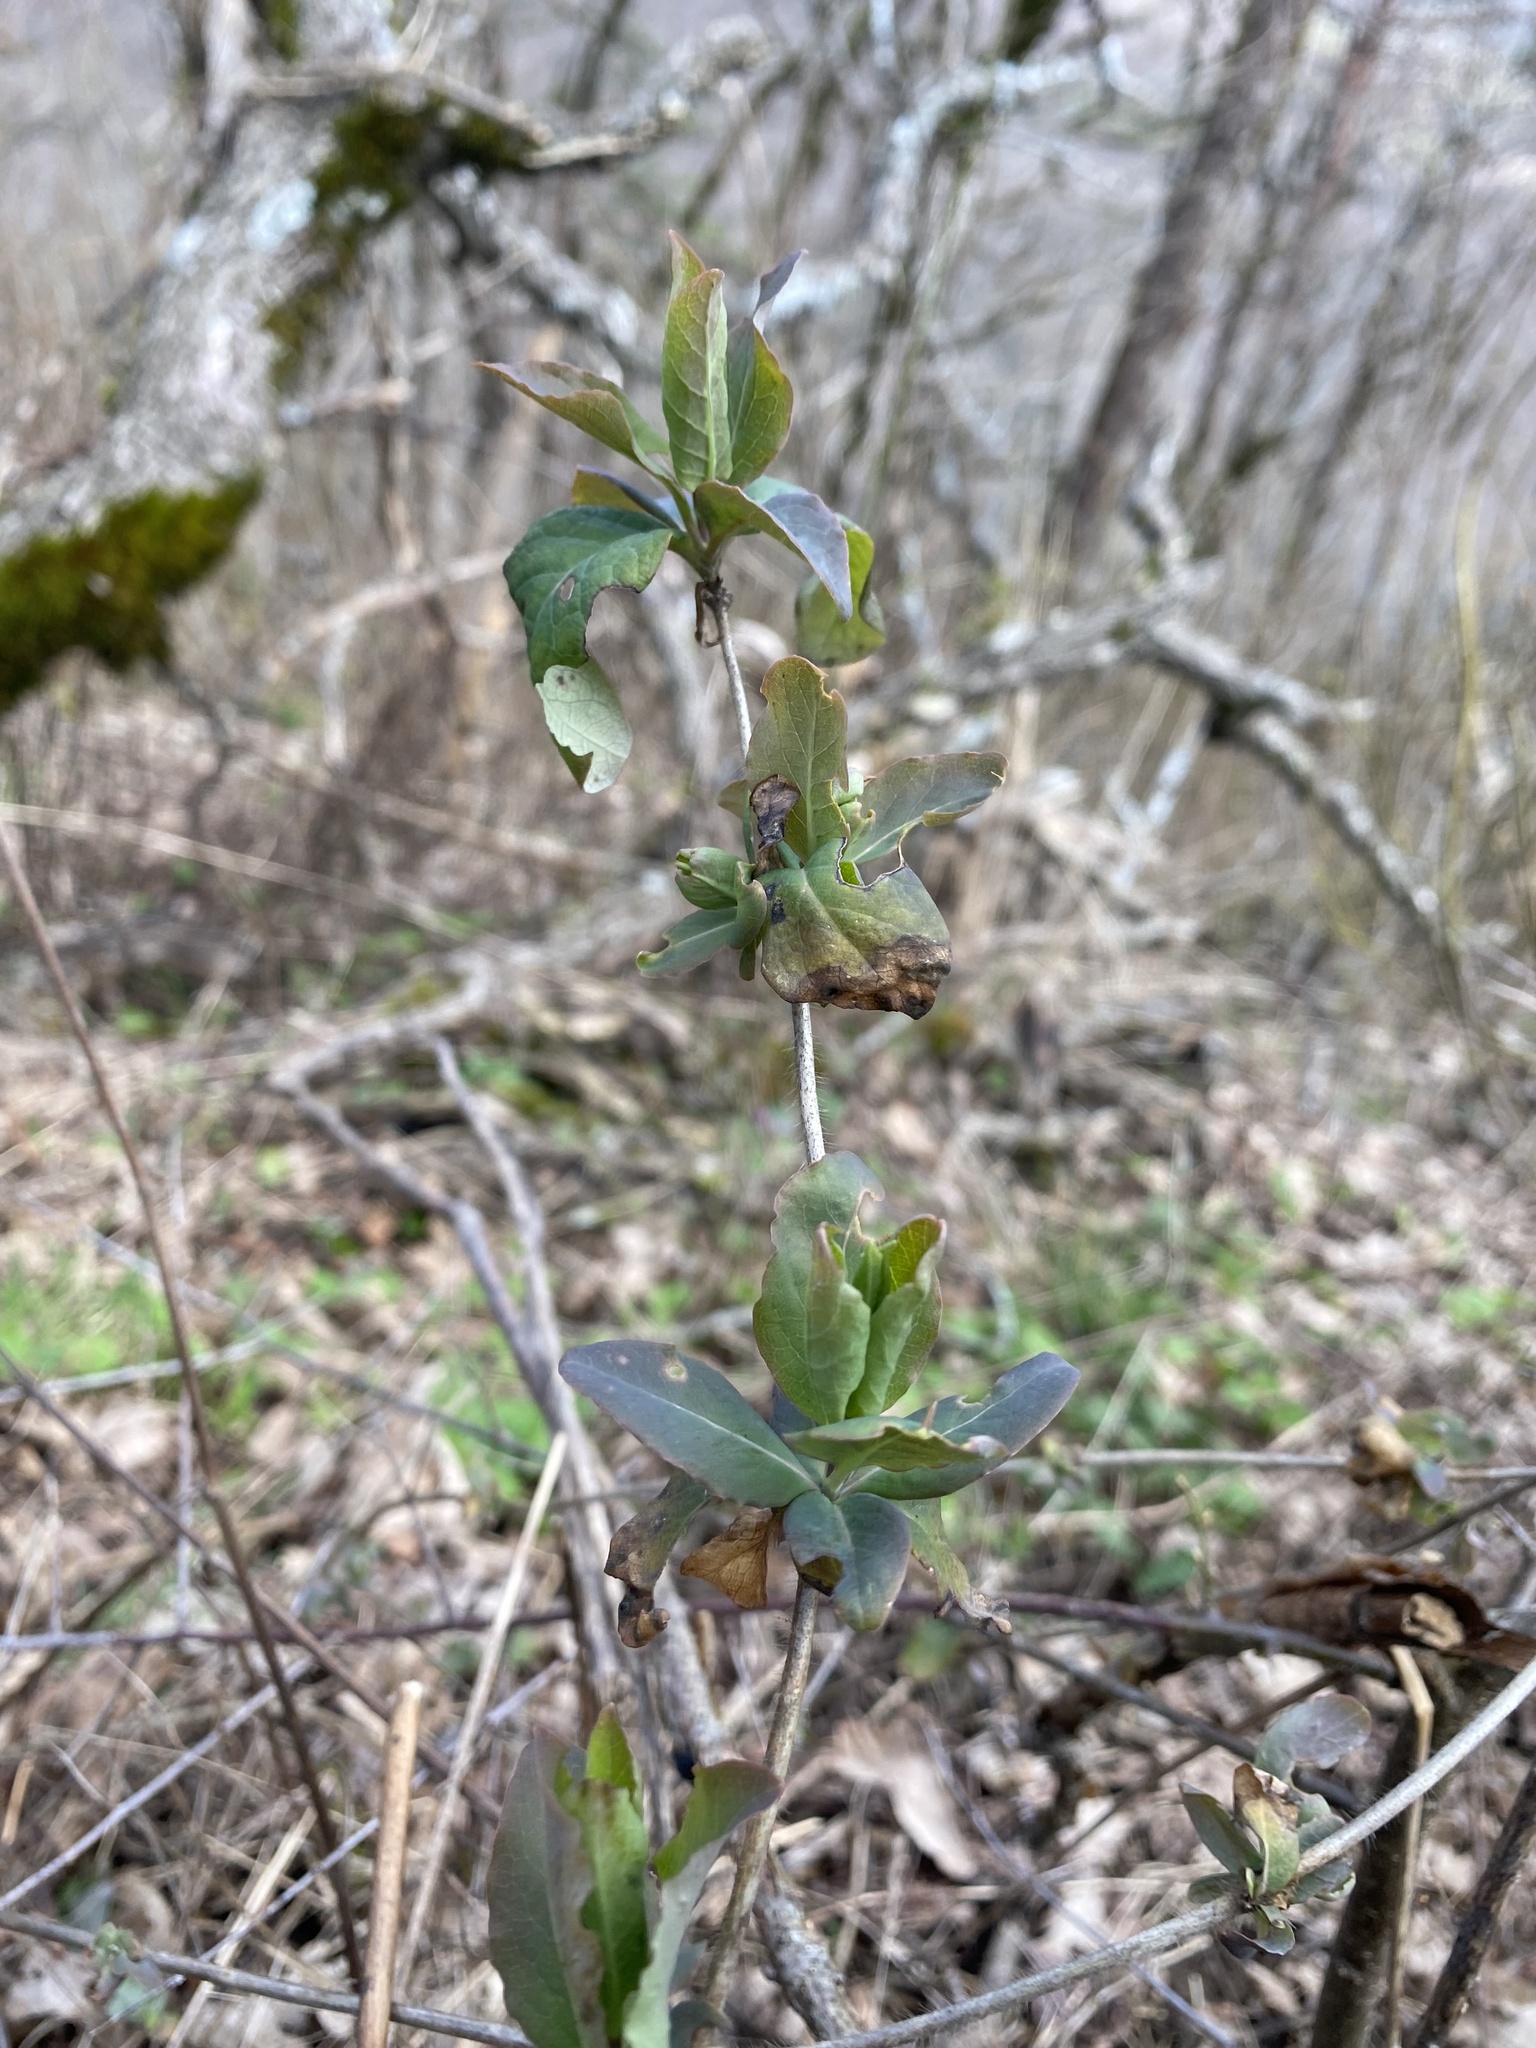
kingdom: Plantae
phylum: Tracheophyta
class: Magnoliopsida
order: Dipsacales
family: Caprifoliaceae
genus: Lonicera
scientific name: Lonicera caprifolium
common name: Perfoliate honeysuckle
